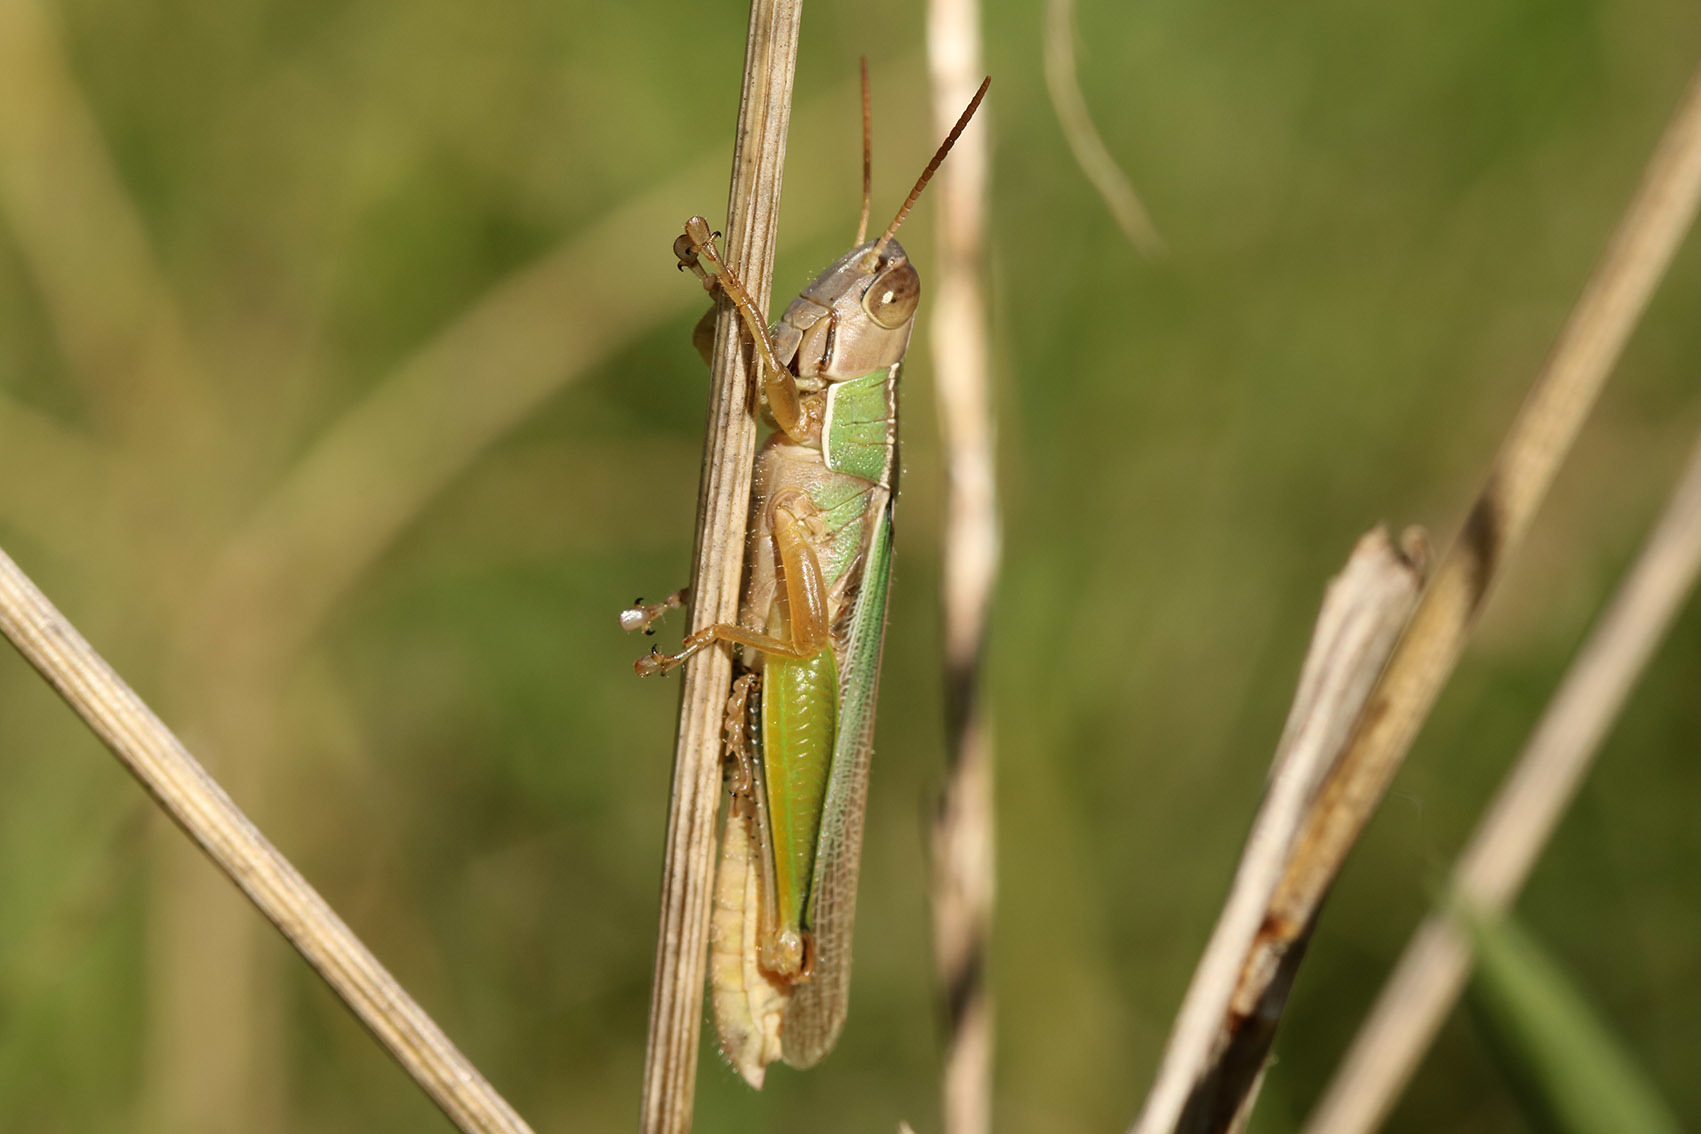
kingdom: Animalia
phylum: Arthropoda
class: Insecta
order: Orthoptera
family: Acrididae
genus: Aleuas
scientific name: Aleuas lineatus
